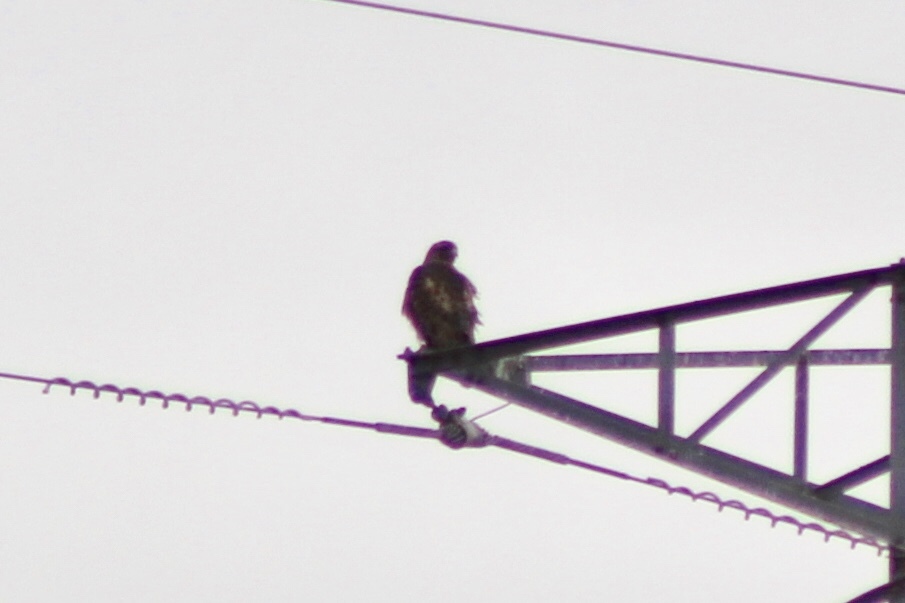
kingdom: Animalia
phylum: Chordata
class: Aves
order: Accipitriformes
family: Accipitridae
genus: Buteo
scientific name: Buteo jamaicensis
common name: Red-tailed hawk
